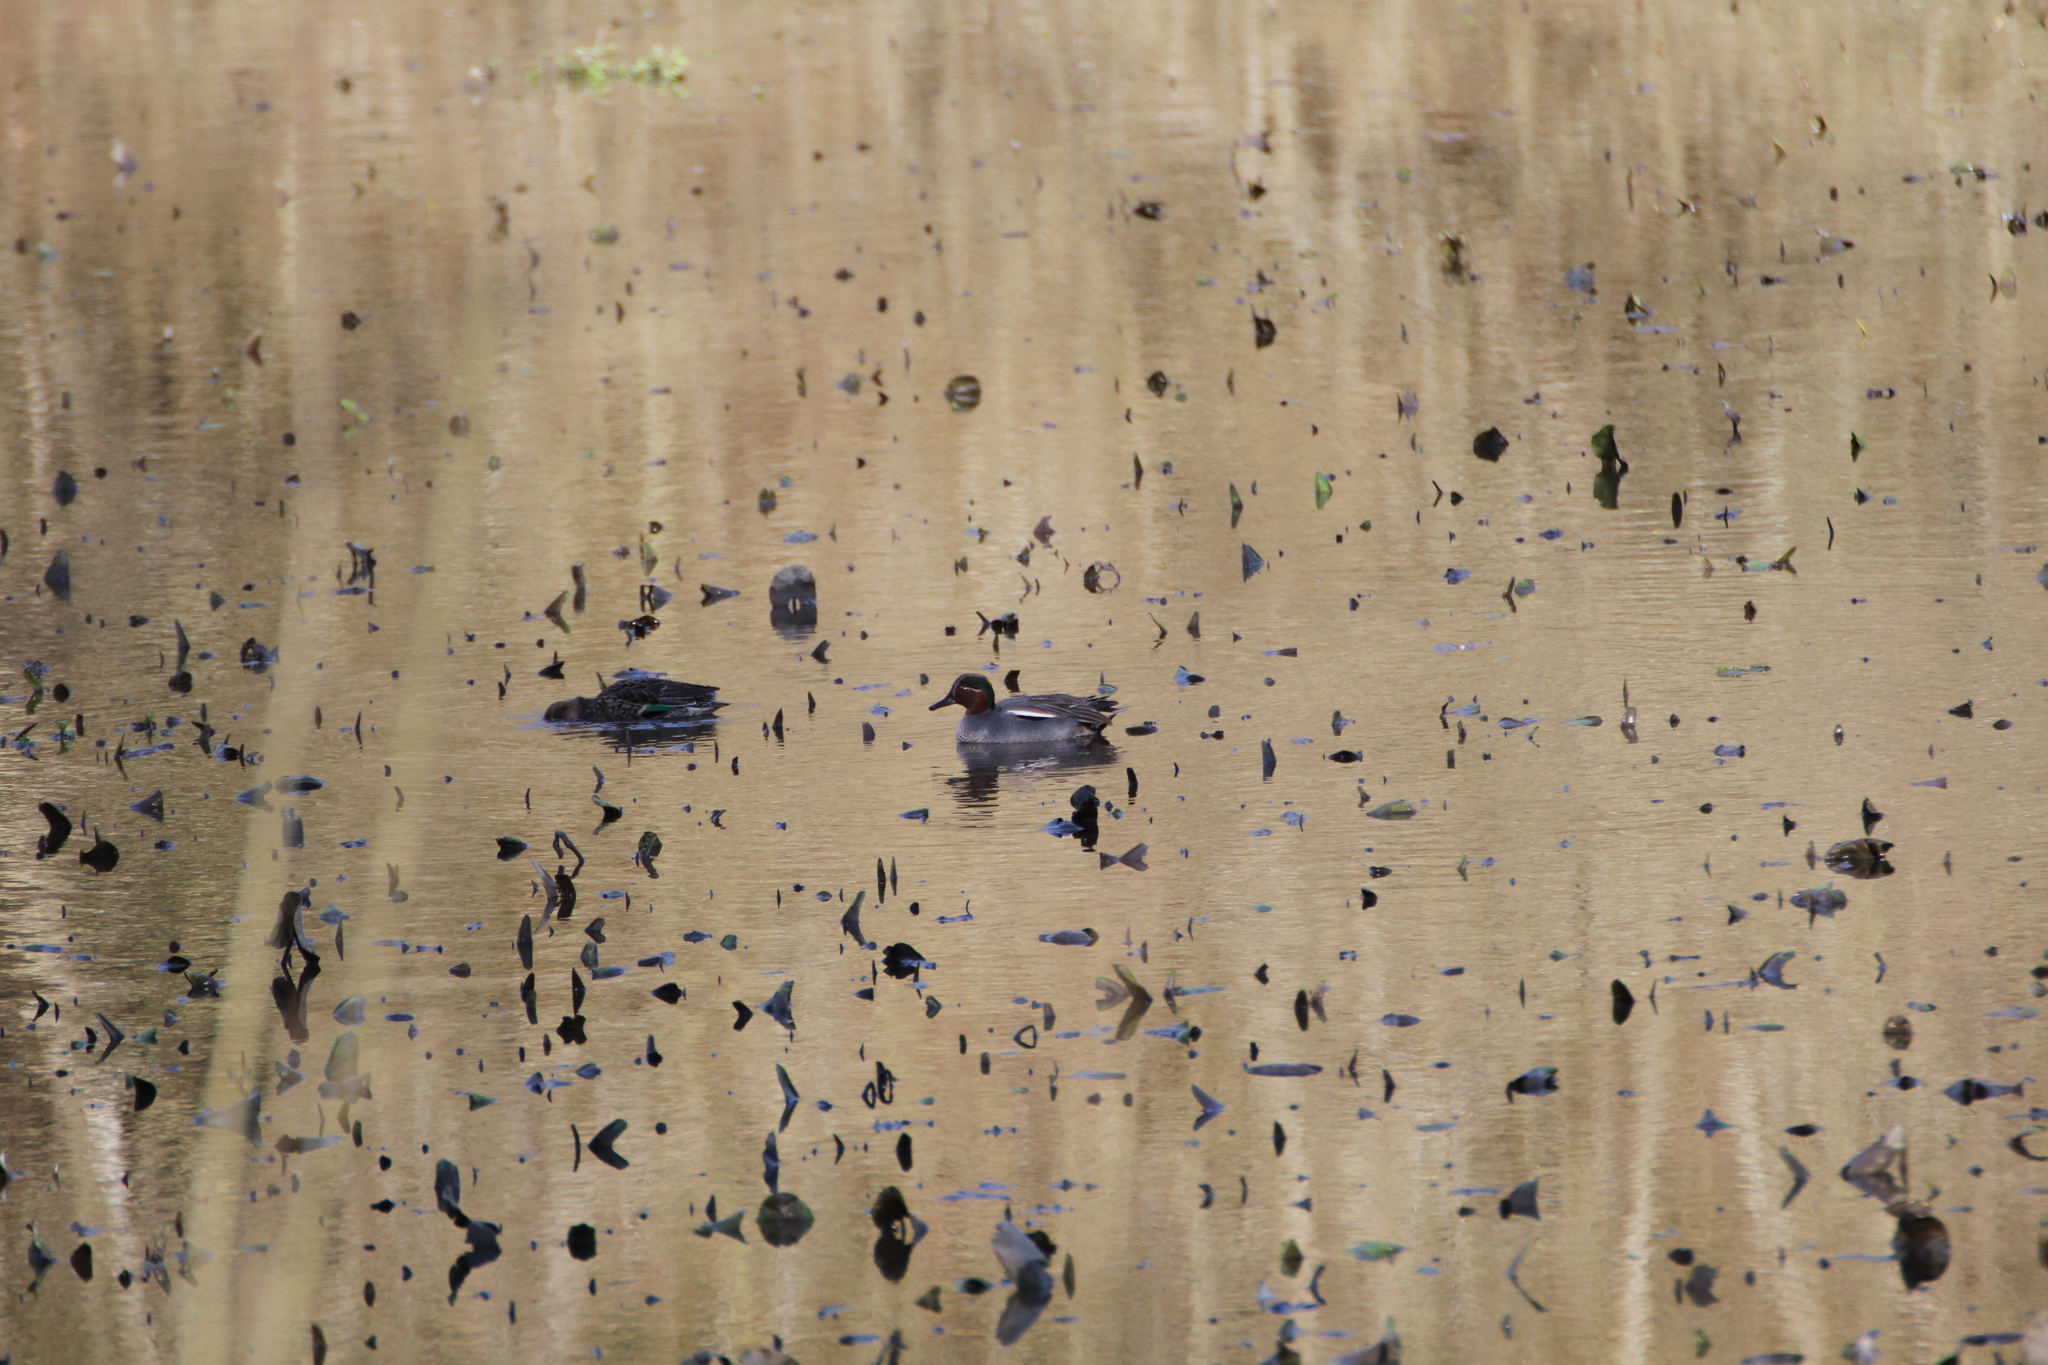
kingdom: Animalia
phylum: Chordata
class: Aves
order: Anseriformes
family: Anatidae
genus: Anas
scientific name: Anas crecca
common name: Eurasian teal
